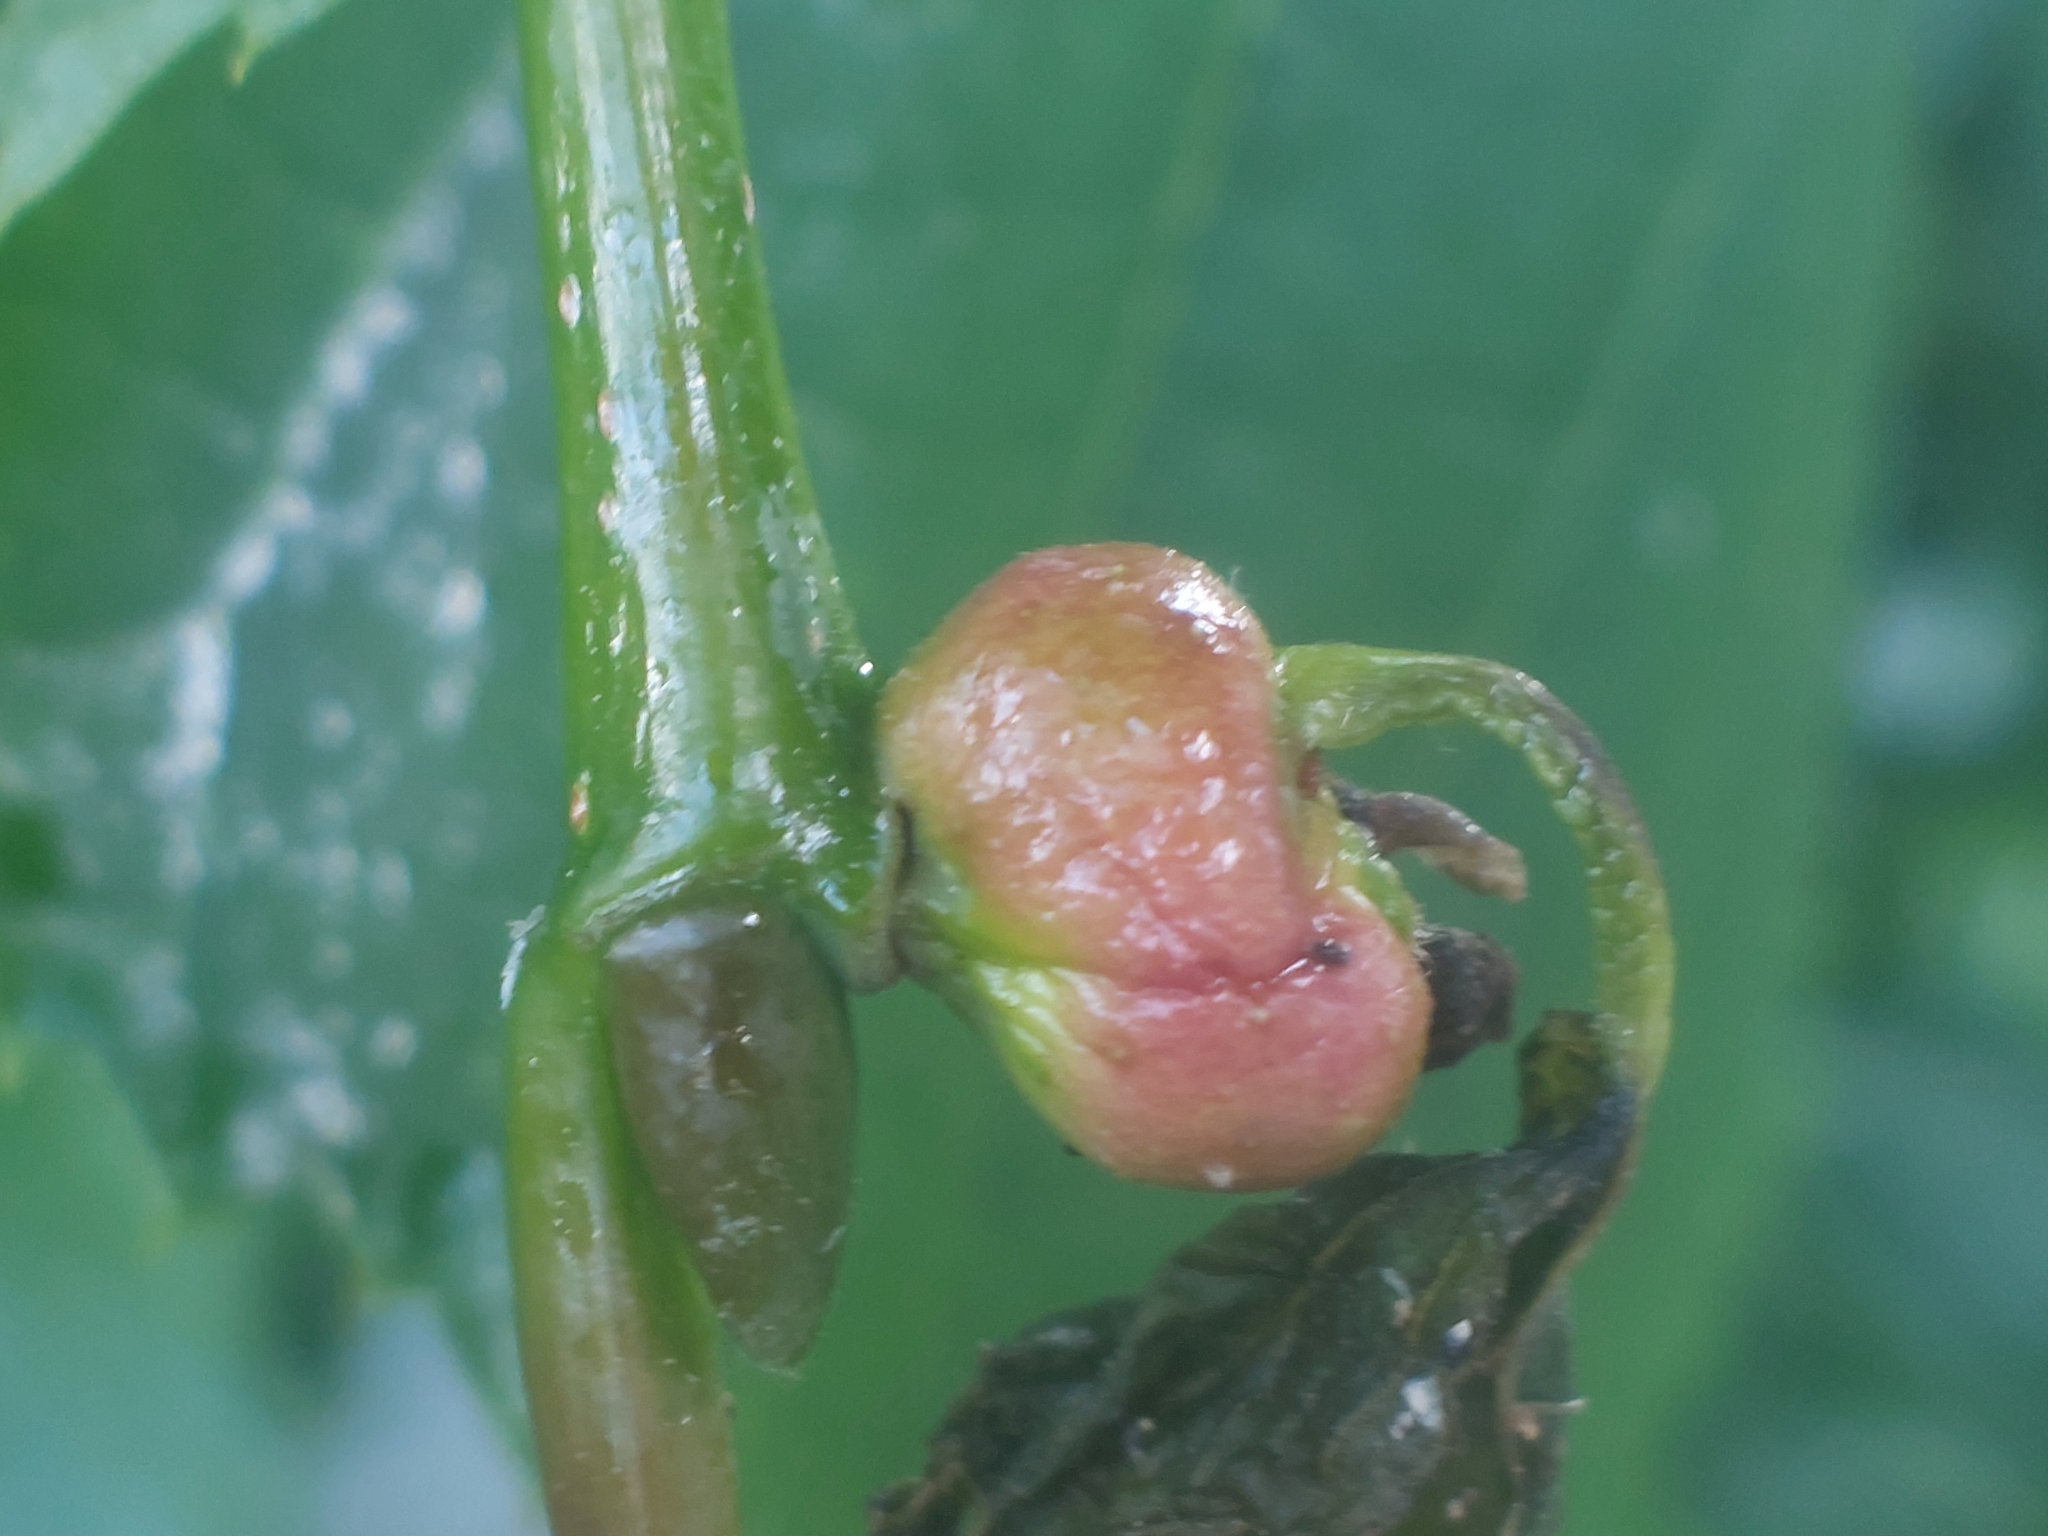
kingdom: Animalia
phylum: Arthropoda
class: Insecta
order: Diptera
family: Cecidomyiidae
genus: Contarinia
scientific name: Contarinia tiliarum
